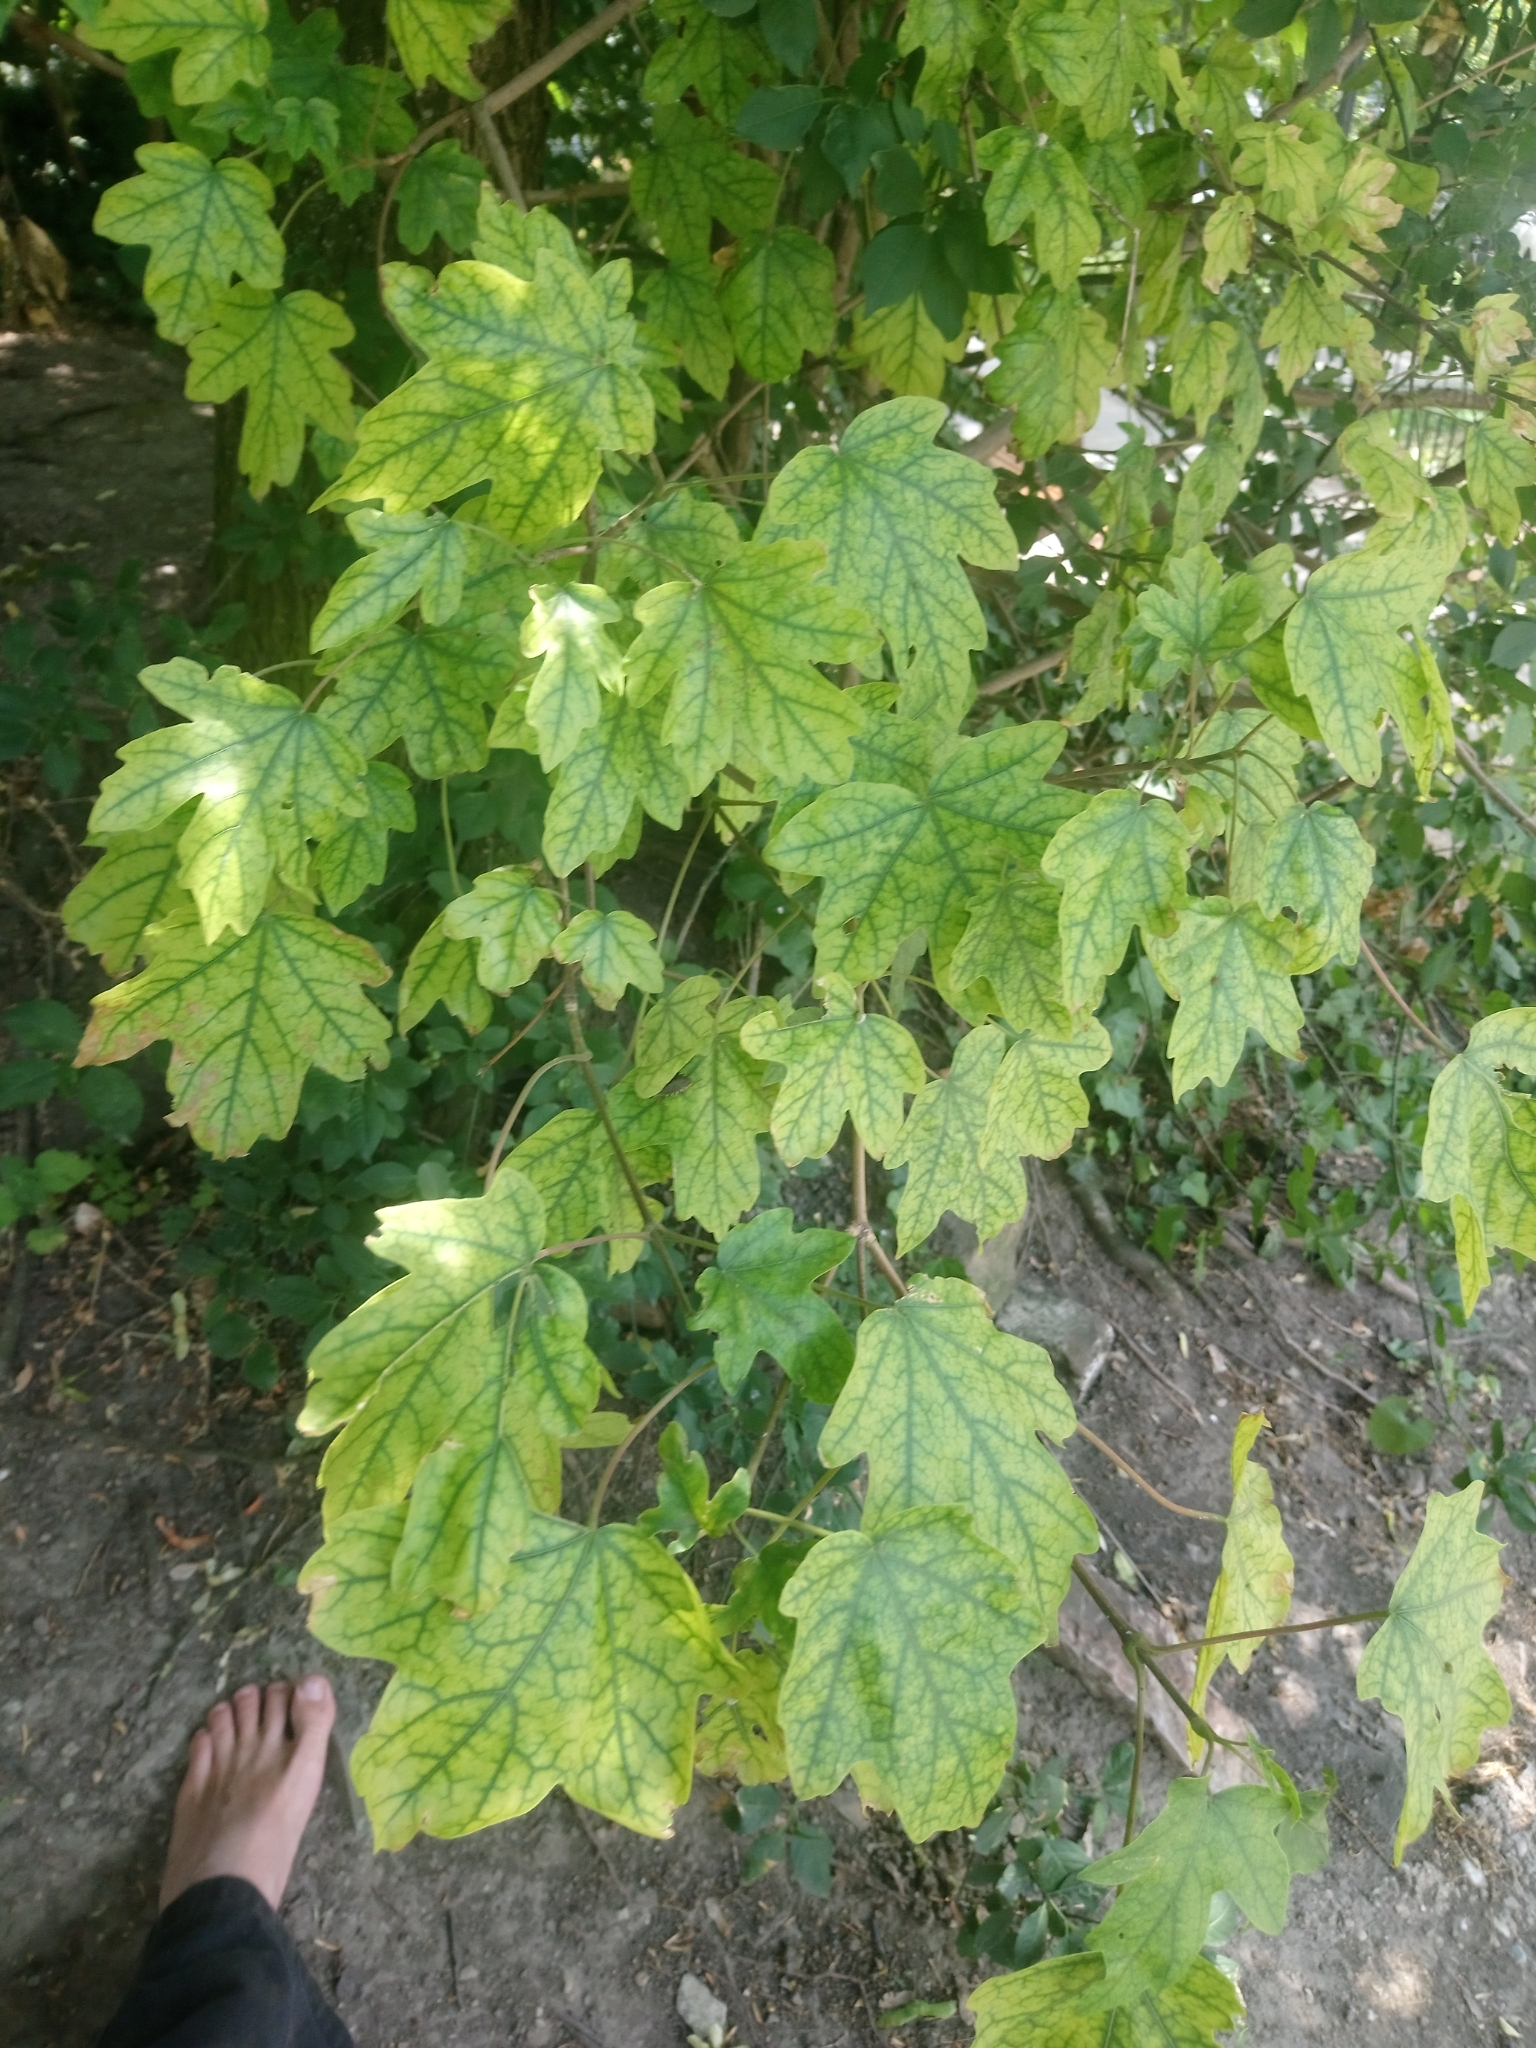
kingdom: Plantae
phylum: Tracheophyta
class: Magnoliopsida
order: Sapindales
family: Sapindaceae
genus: Acer
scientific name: Acer campestre
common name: Field maple
